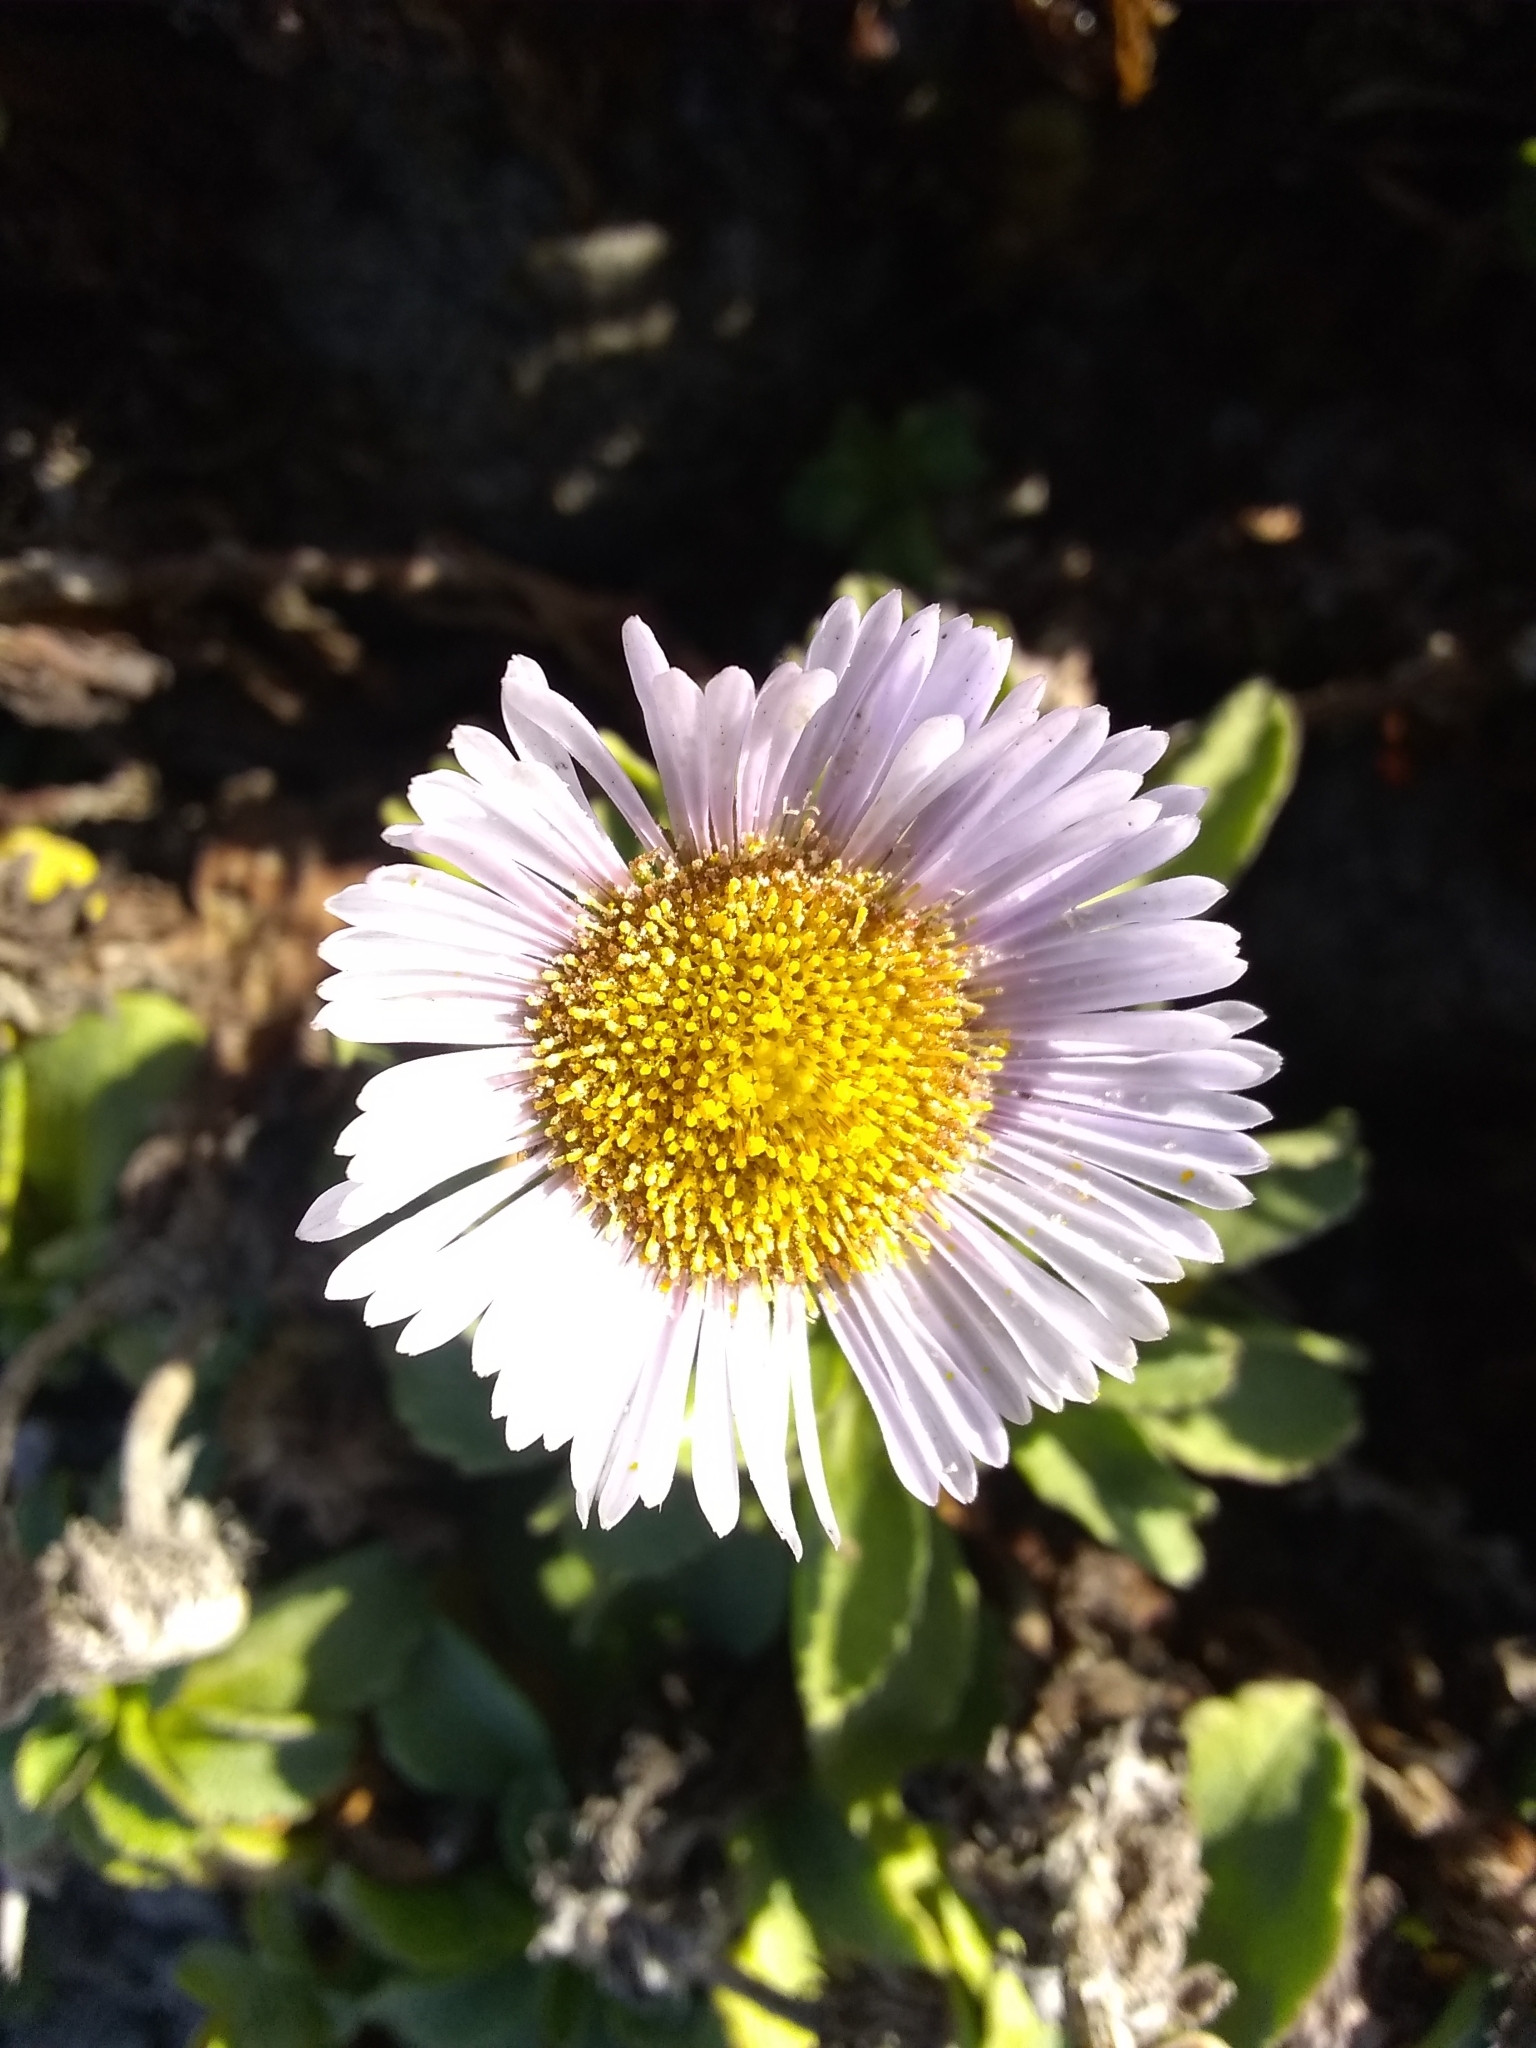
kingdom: Plantae
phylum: Tracheophyta
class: Magnoliopsida
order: Asterales
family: Asteraceae
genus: Erigeron
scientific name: Erigeron glaucus
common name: Seaside daisy
